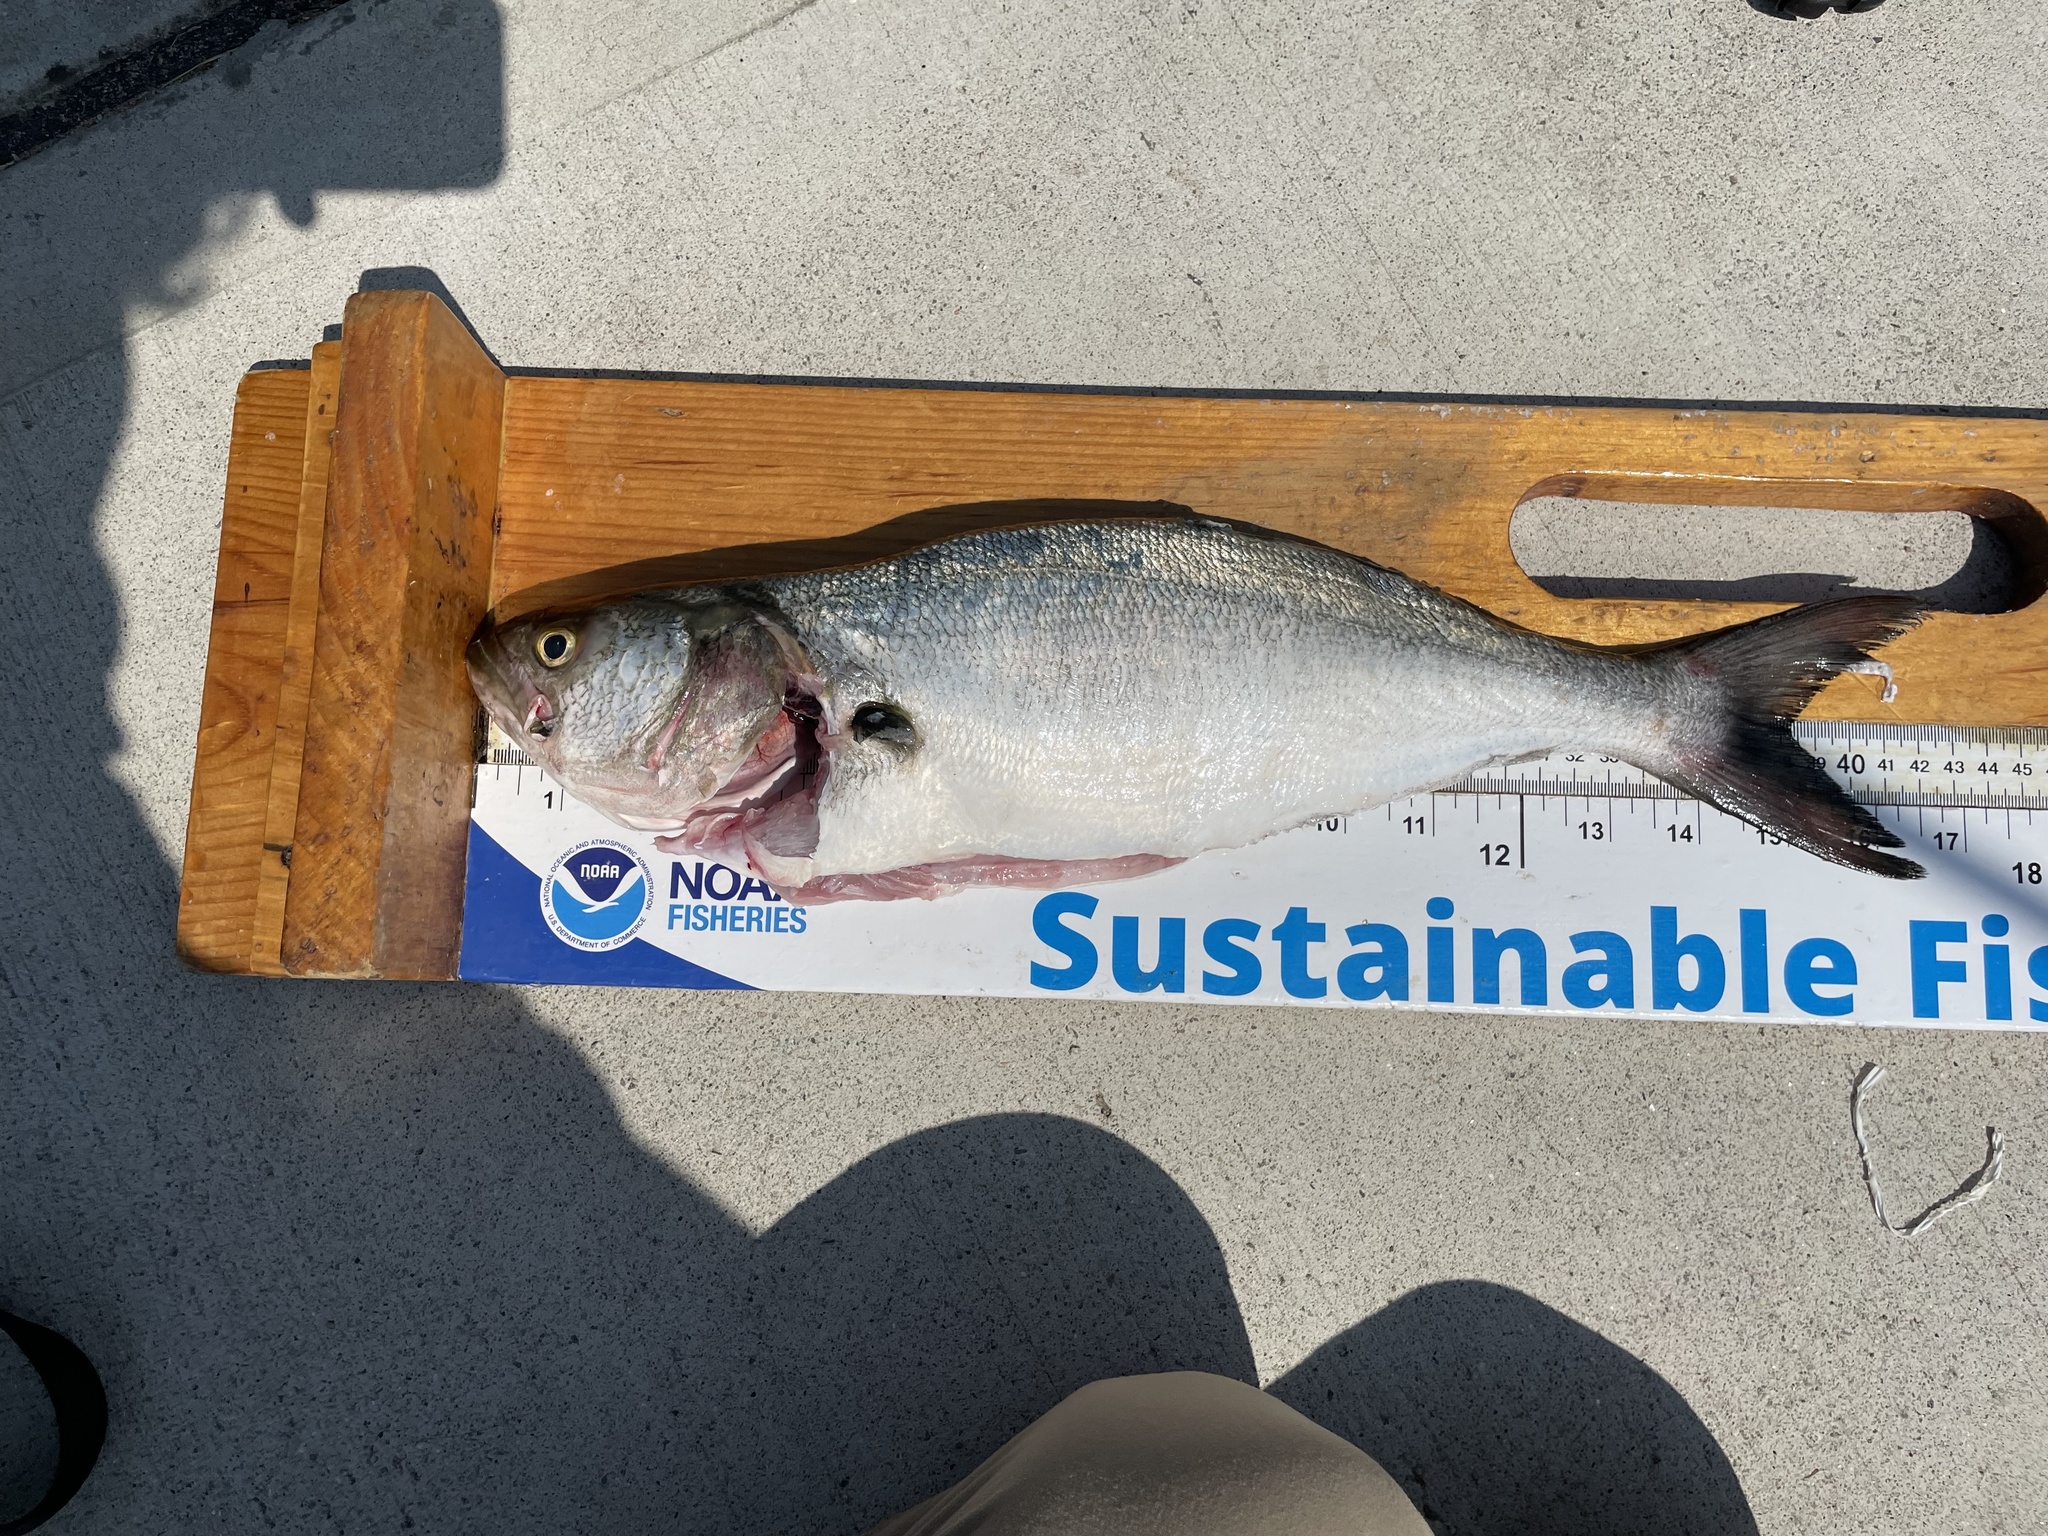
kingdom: Animalia
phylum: Chordata
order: Perciformes
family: Pomatomidae
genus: Pomatomus
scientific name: Pomatomus saltatrix
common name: Bluefish
